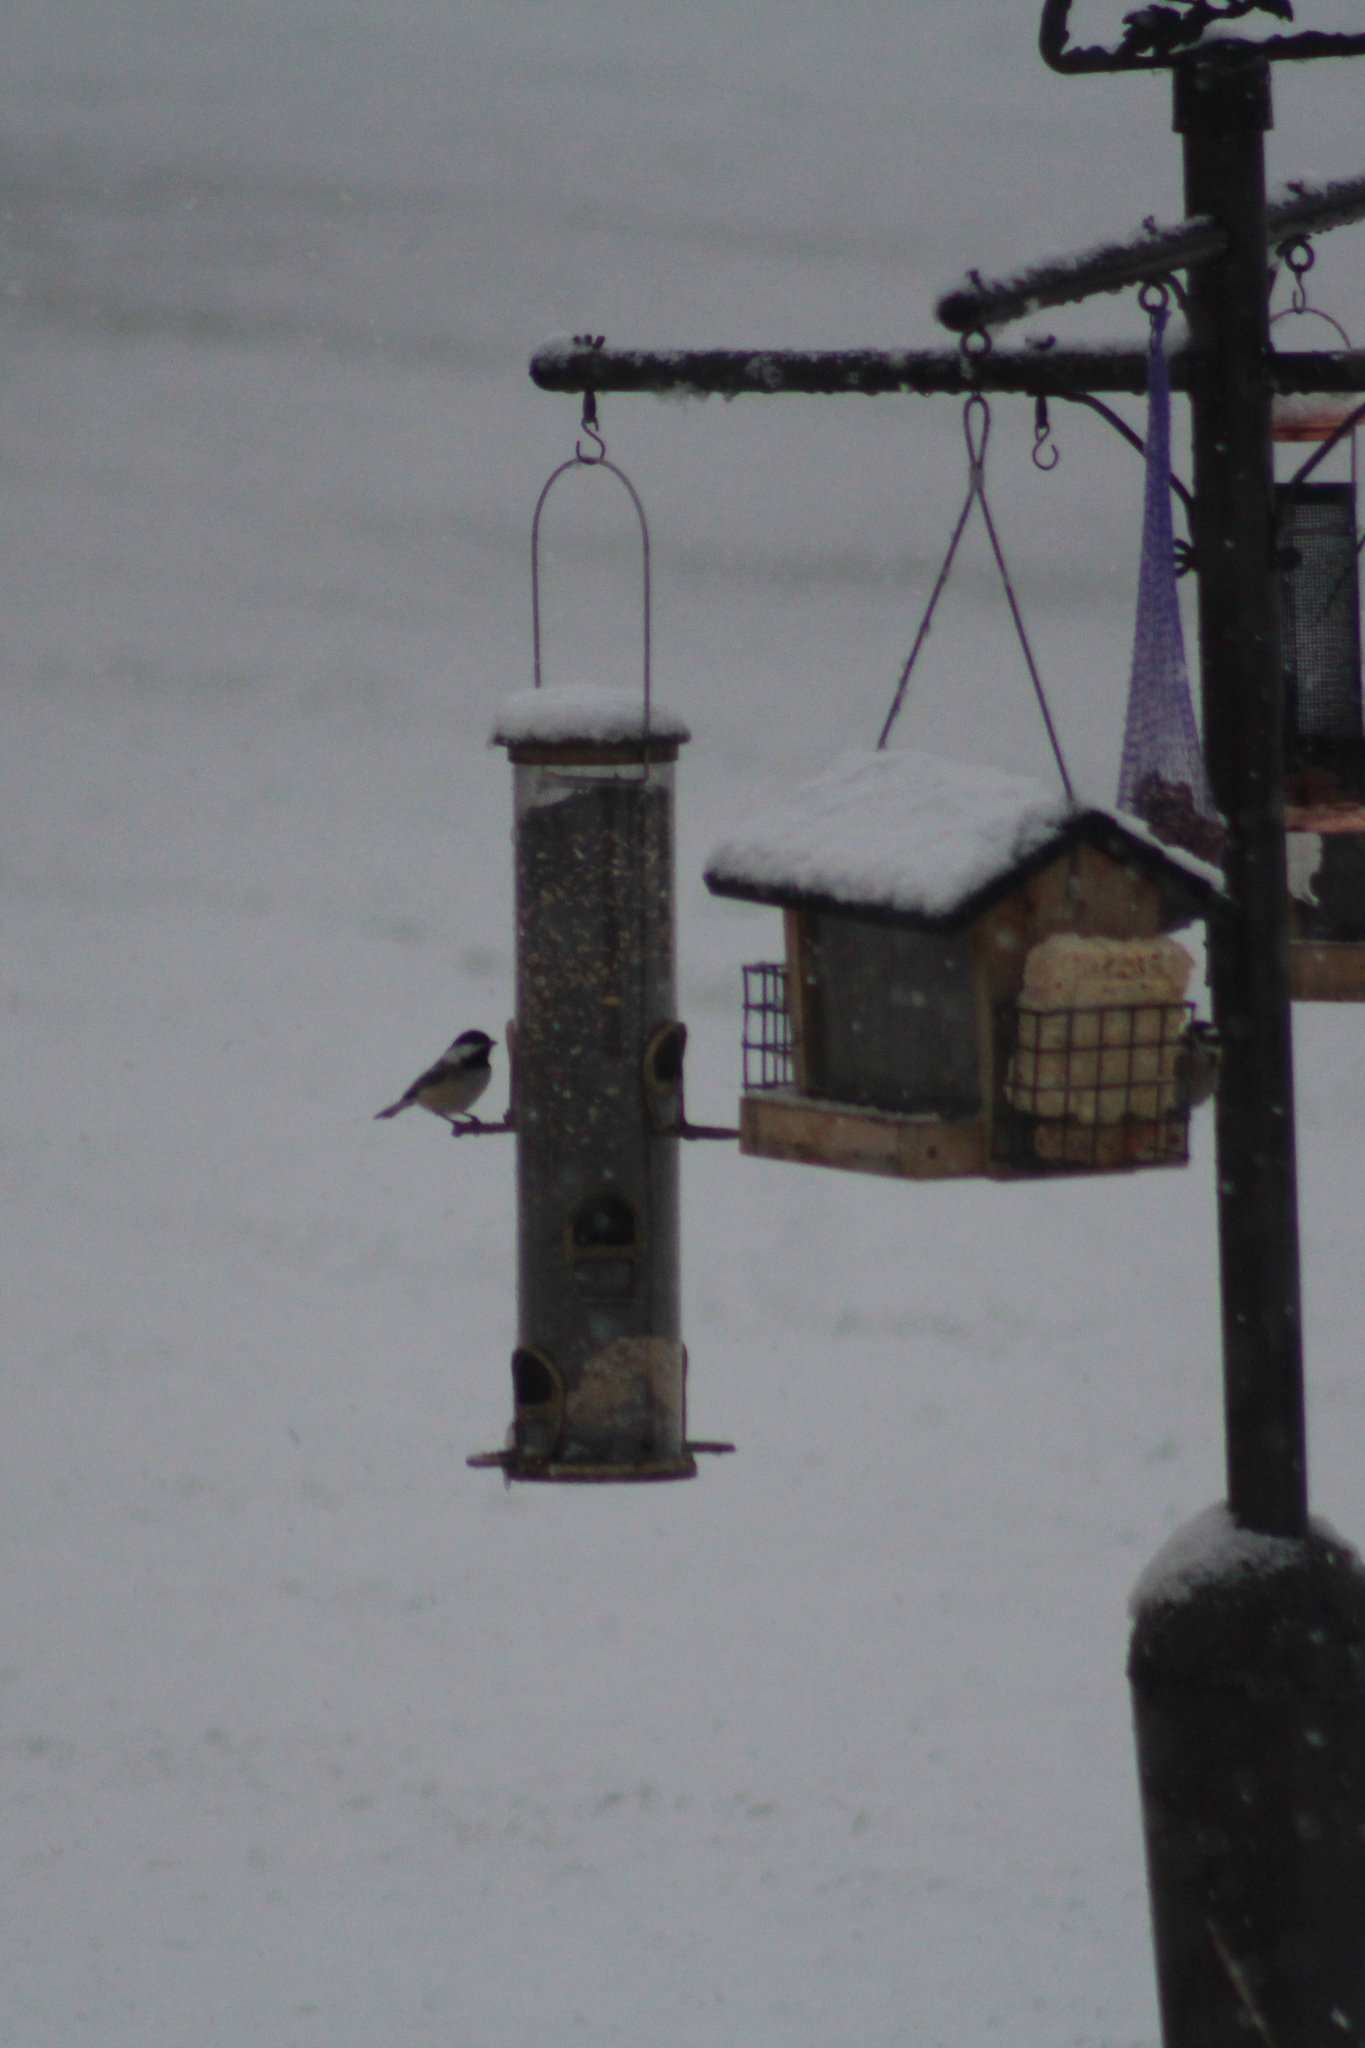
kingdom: Animalia
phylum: Chordata
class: Aves
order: Passeriformes
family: Paridae
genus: Poecile
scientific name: Poecile atricapillus
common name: Black-capped chickadee
